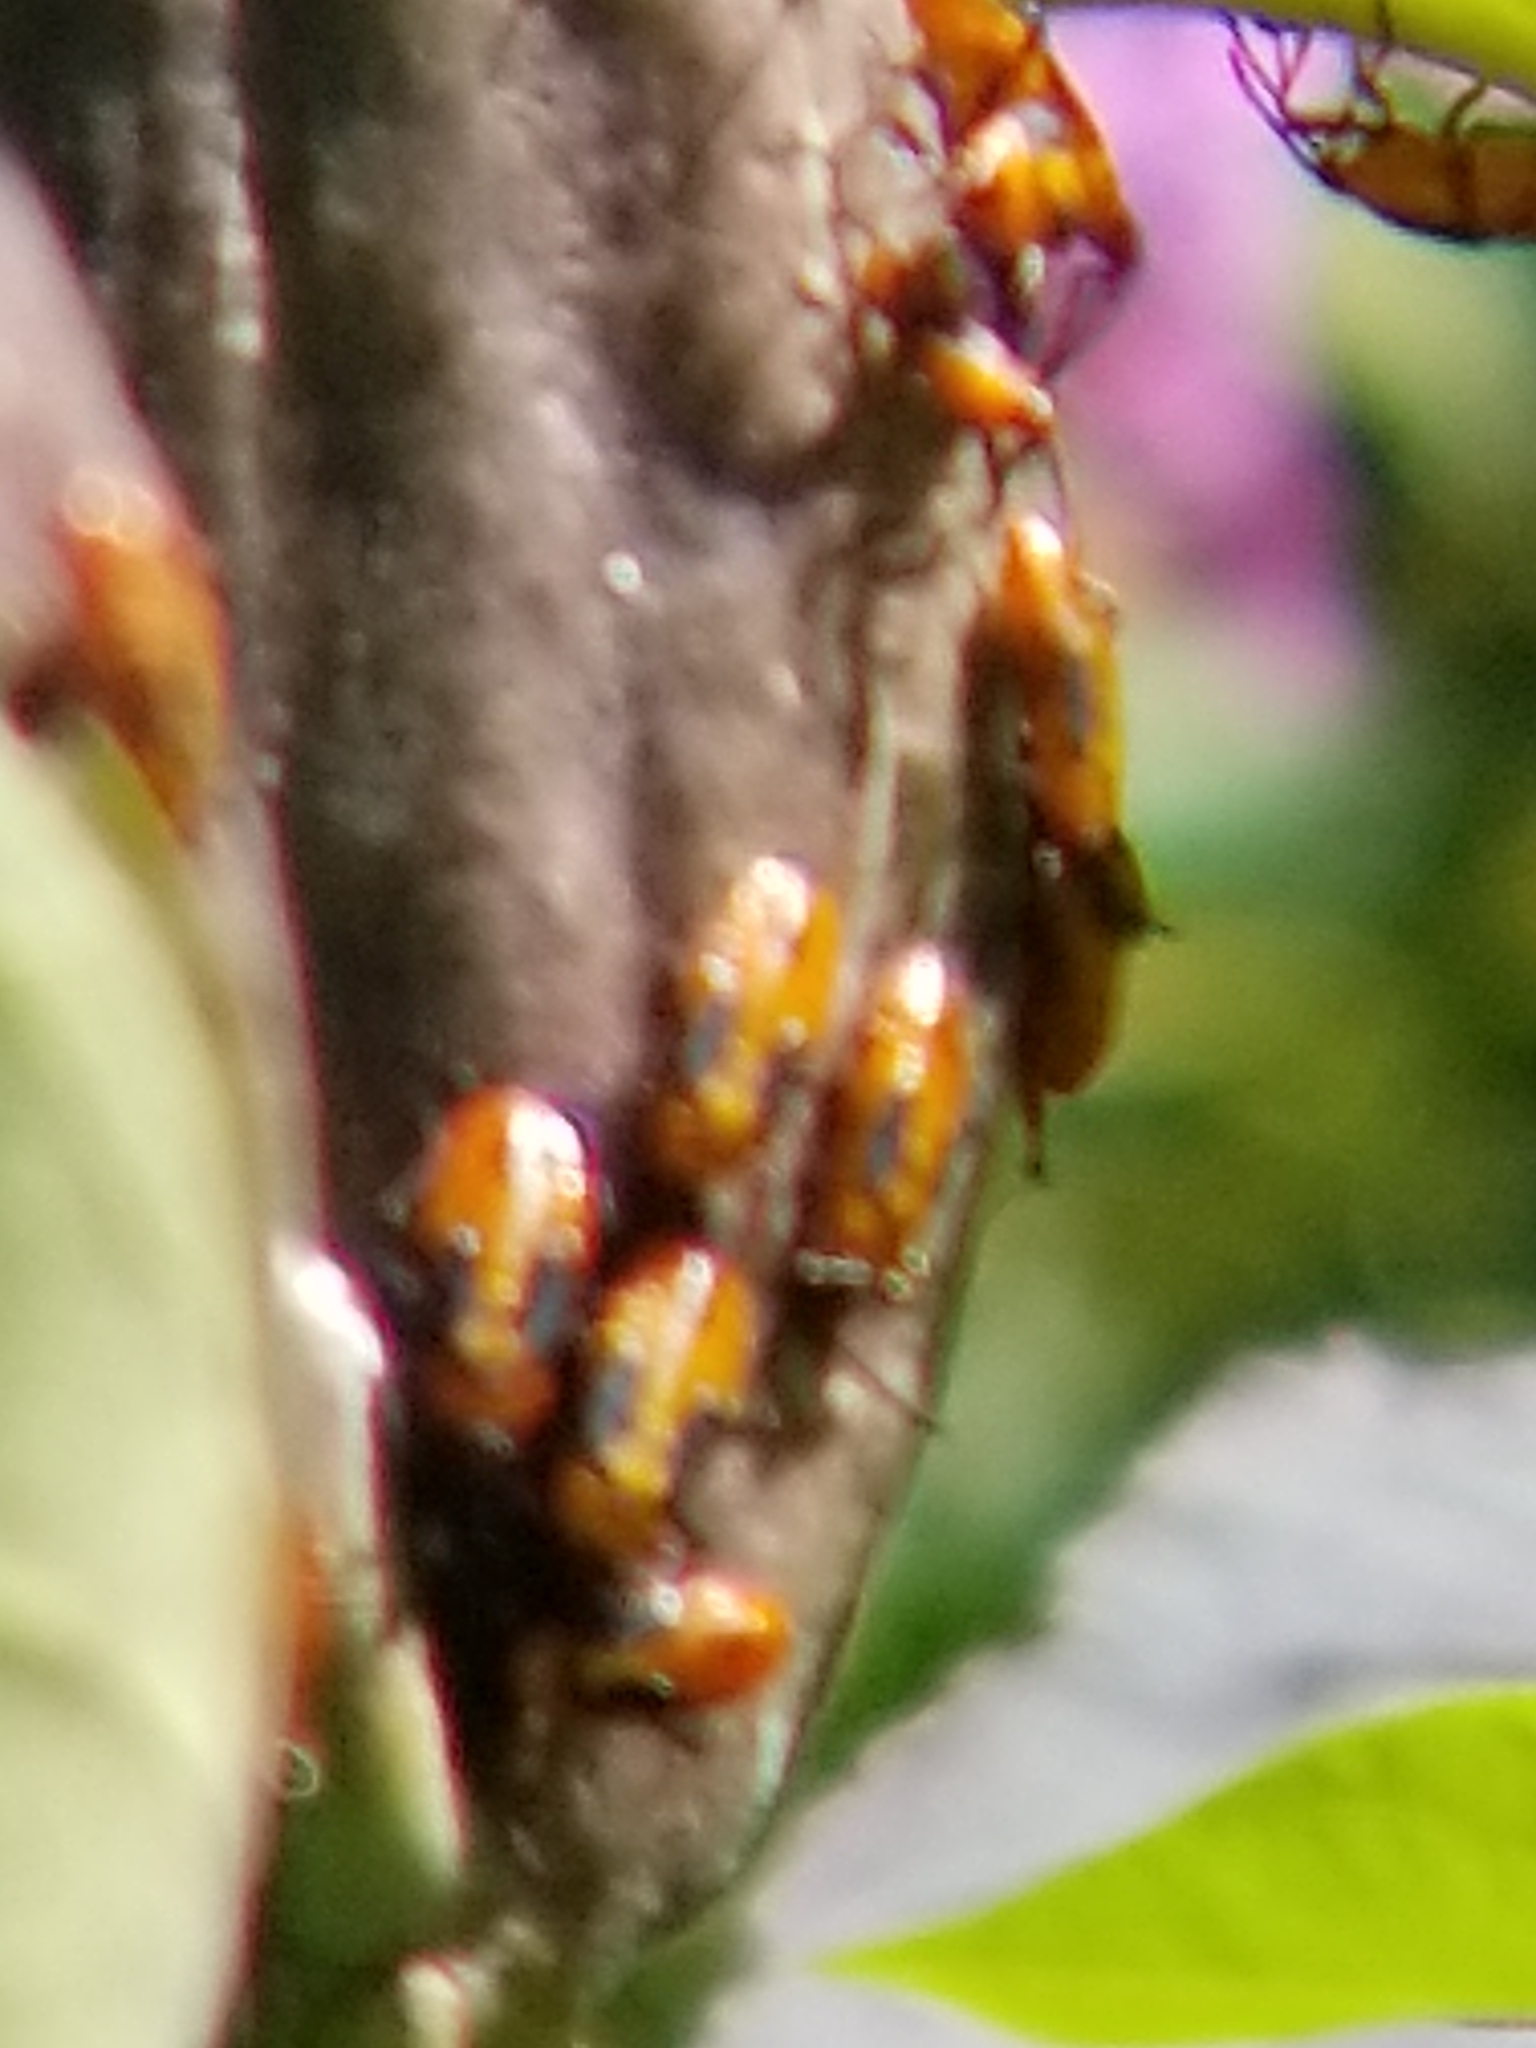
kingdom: Animalia
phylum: Arthropoda
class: Insecta
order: Hemiptera
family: Lygaeidae
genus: Oncopeltus
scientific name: Oncopeltus fasciatus
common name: Large milkweed bug
